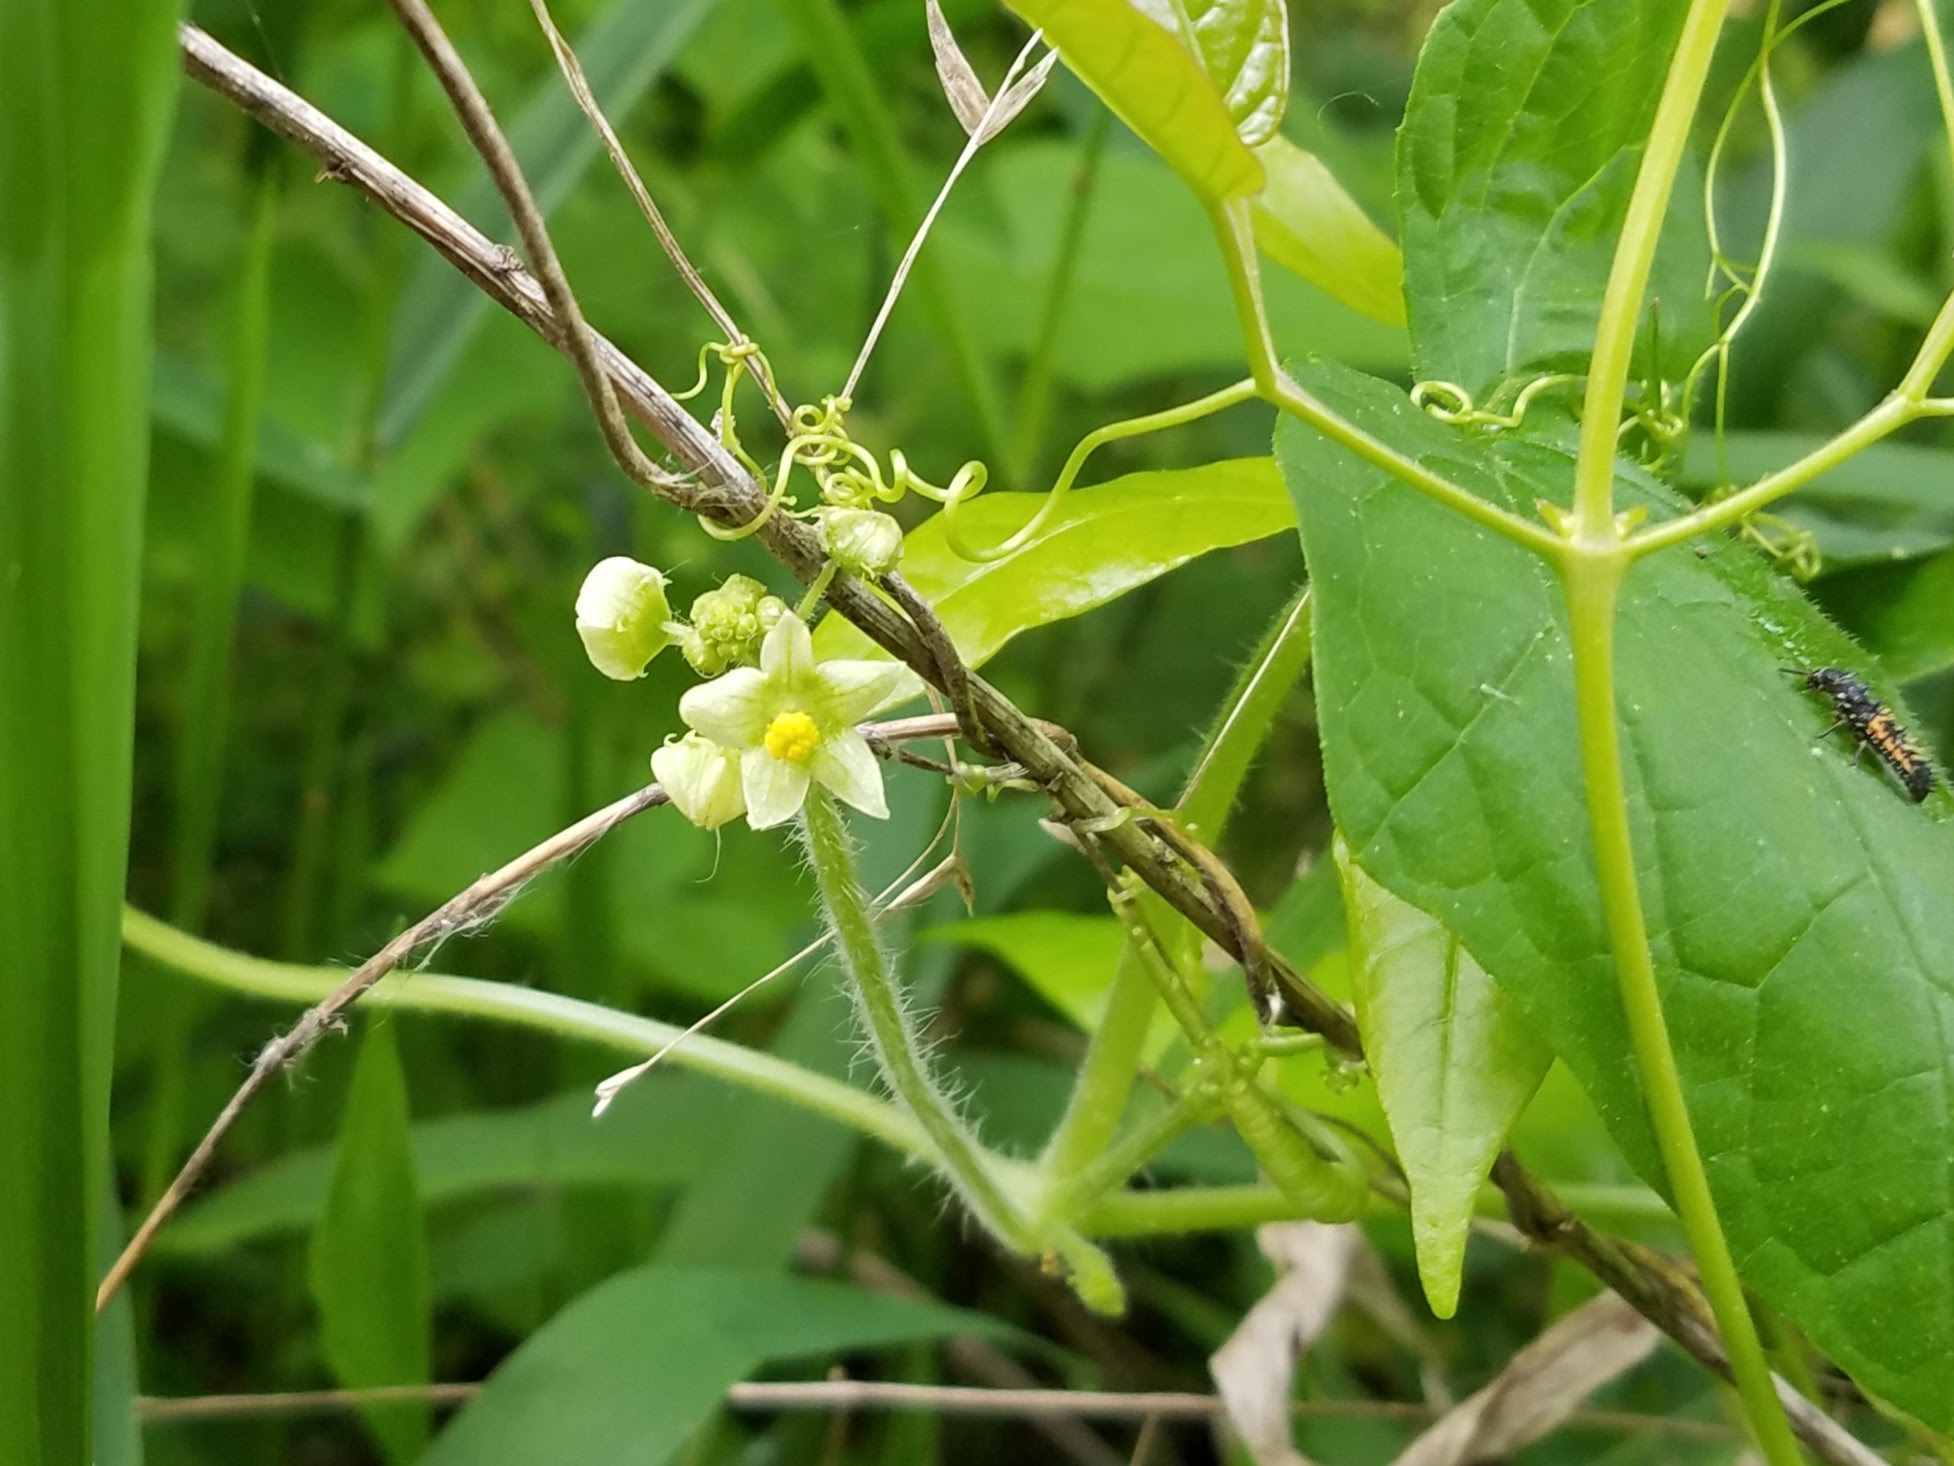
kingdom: Plantae
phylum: Tracheophyta
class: Magnoliopsida
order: Cucurbitales
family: Cucurbitaceae
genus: Sicyos
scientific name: Sicyos angulatus
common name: Angled burr cucumber
